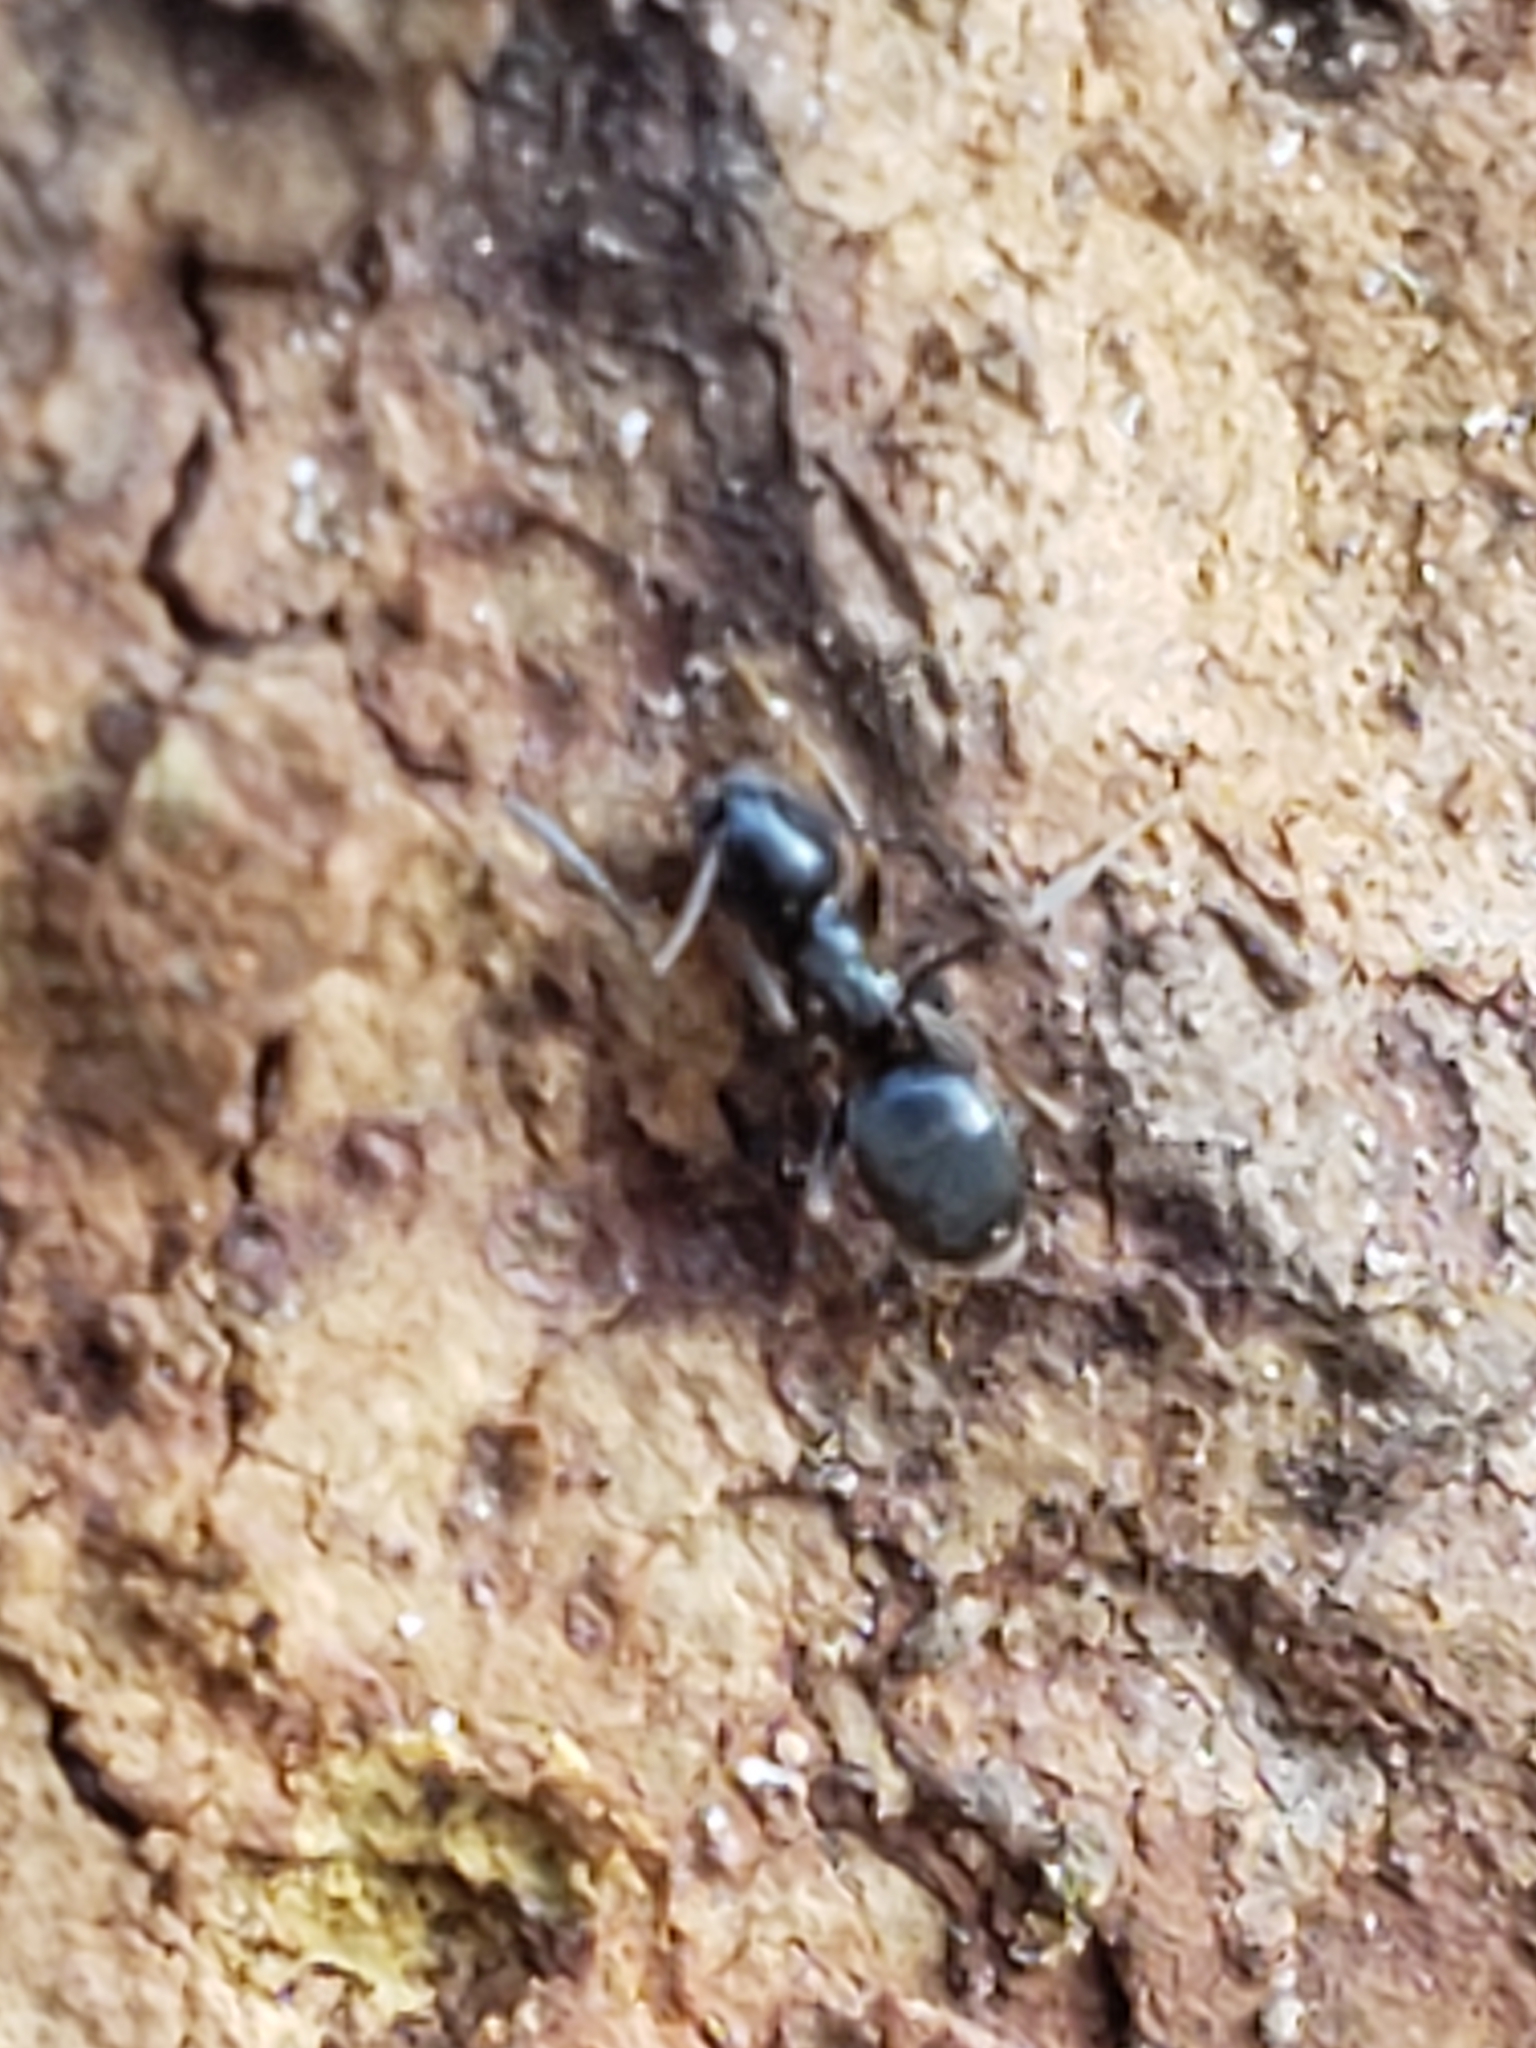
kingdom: Animalia
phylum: Arthropoda
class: Insecta
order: Hymenoptera
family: Formicidae
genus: Tapinoma
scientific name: Tapinoma sessile
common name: Odorous house ant
